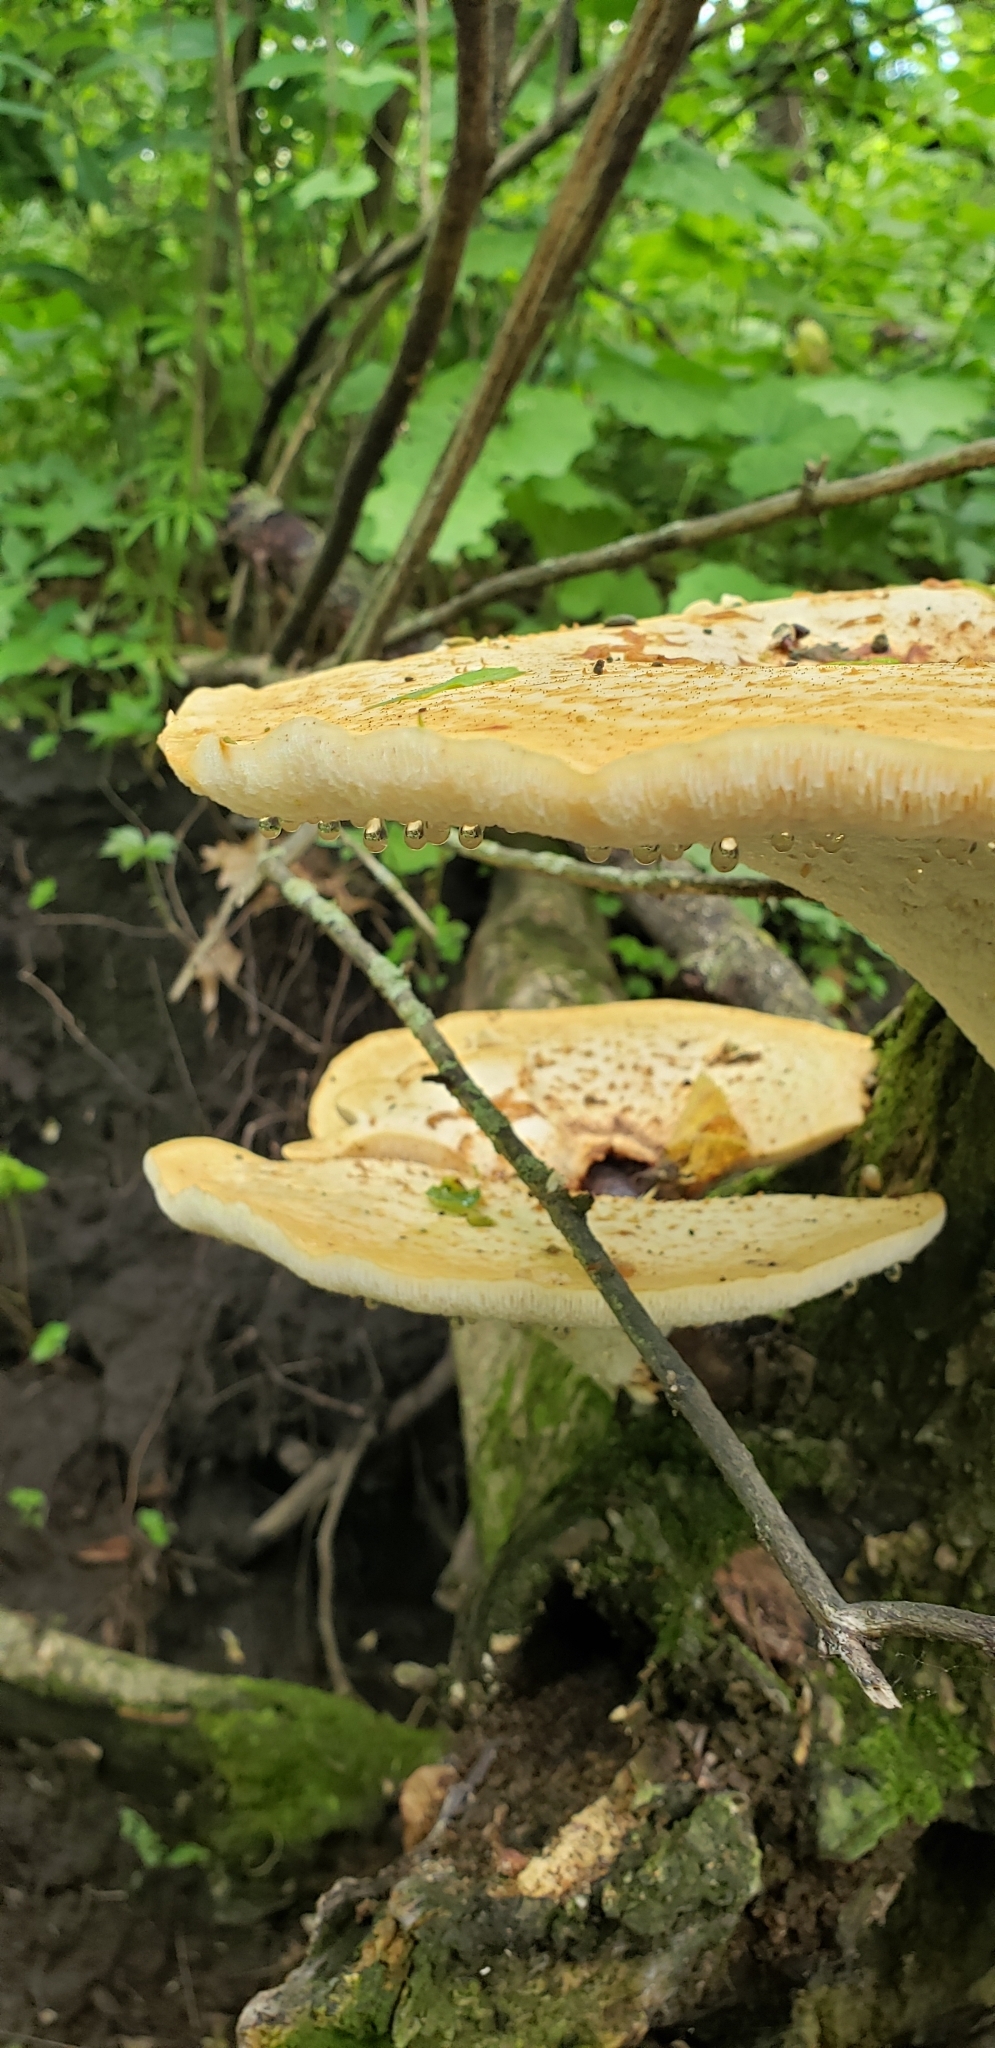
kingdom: Fungi
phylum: Basidiomycota
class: Agaricomycetes
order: Polyporales
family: Polyporaceae
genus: Cerioporus
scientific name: Cerioporus squamosus
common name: Dryad's saddle
